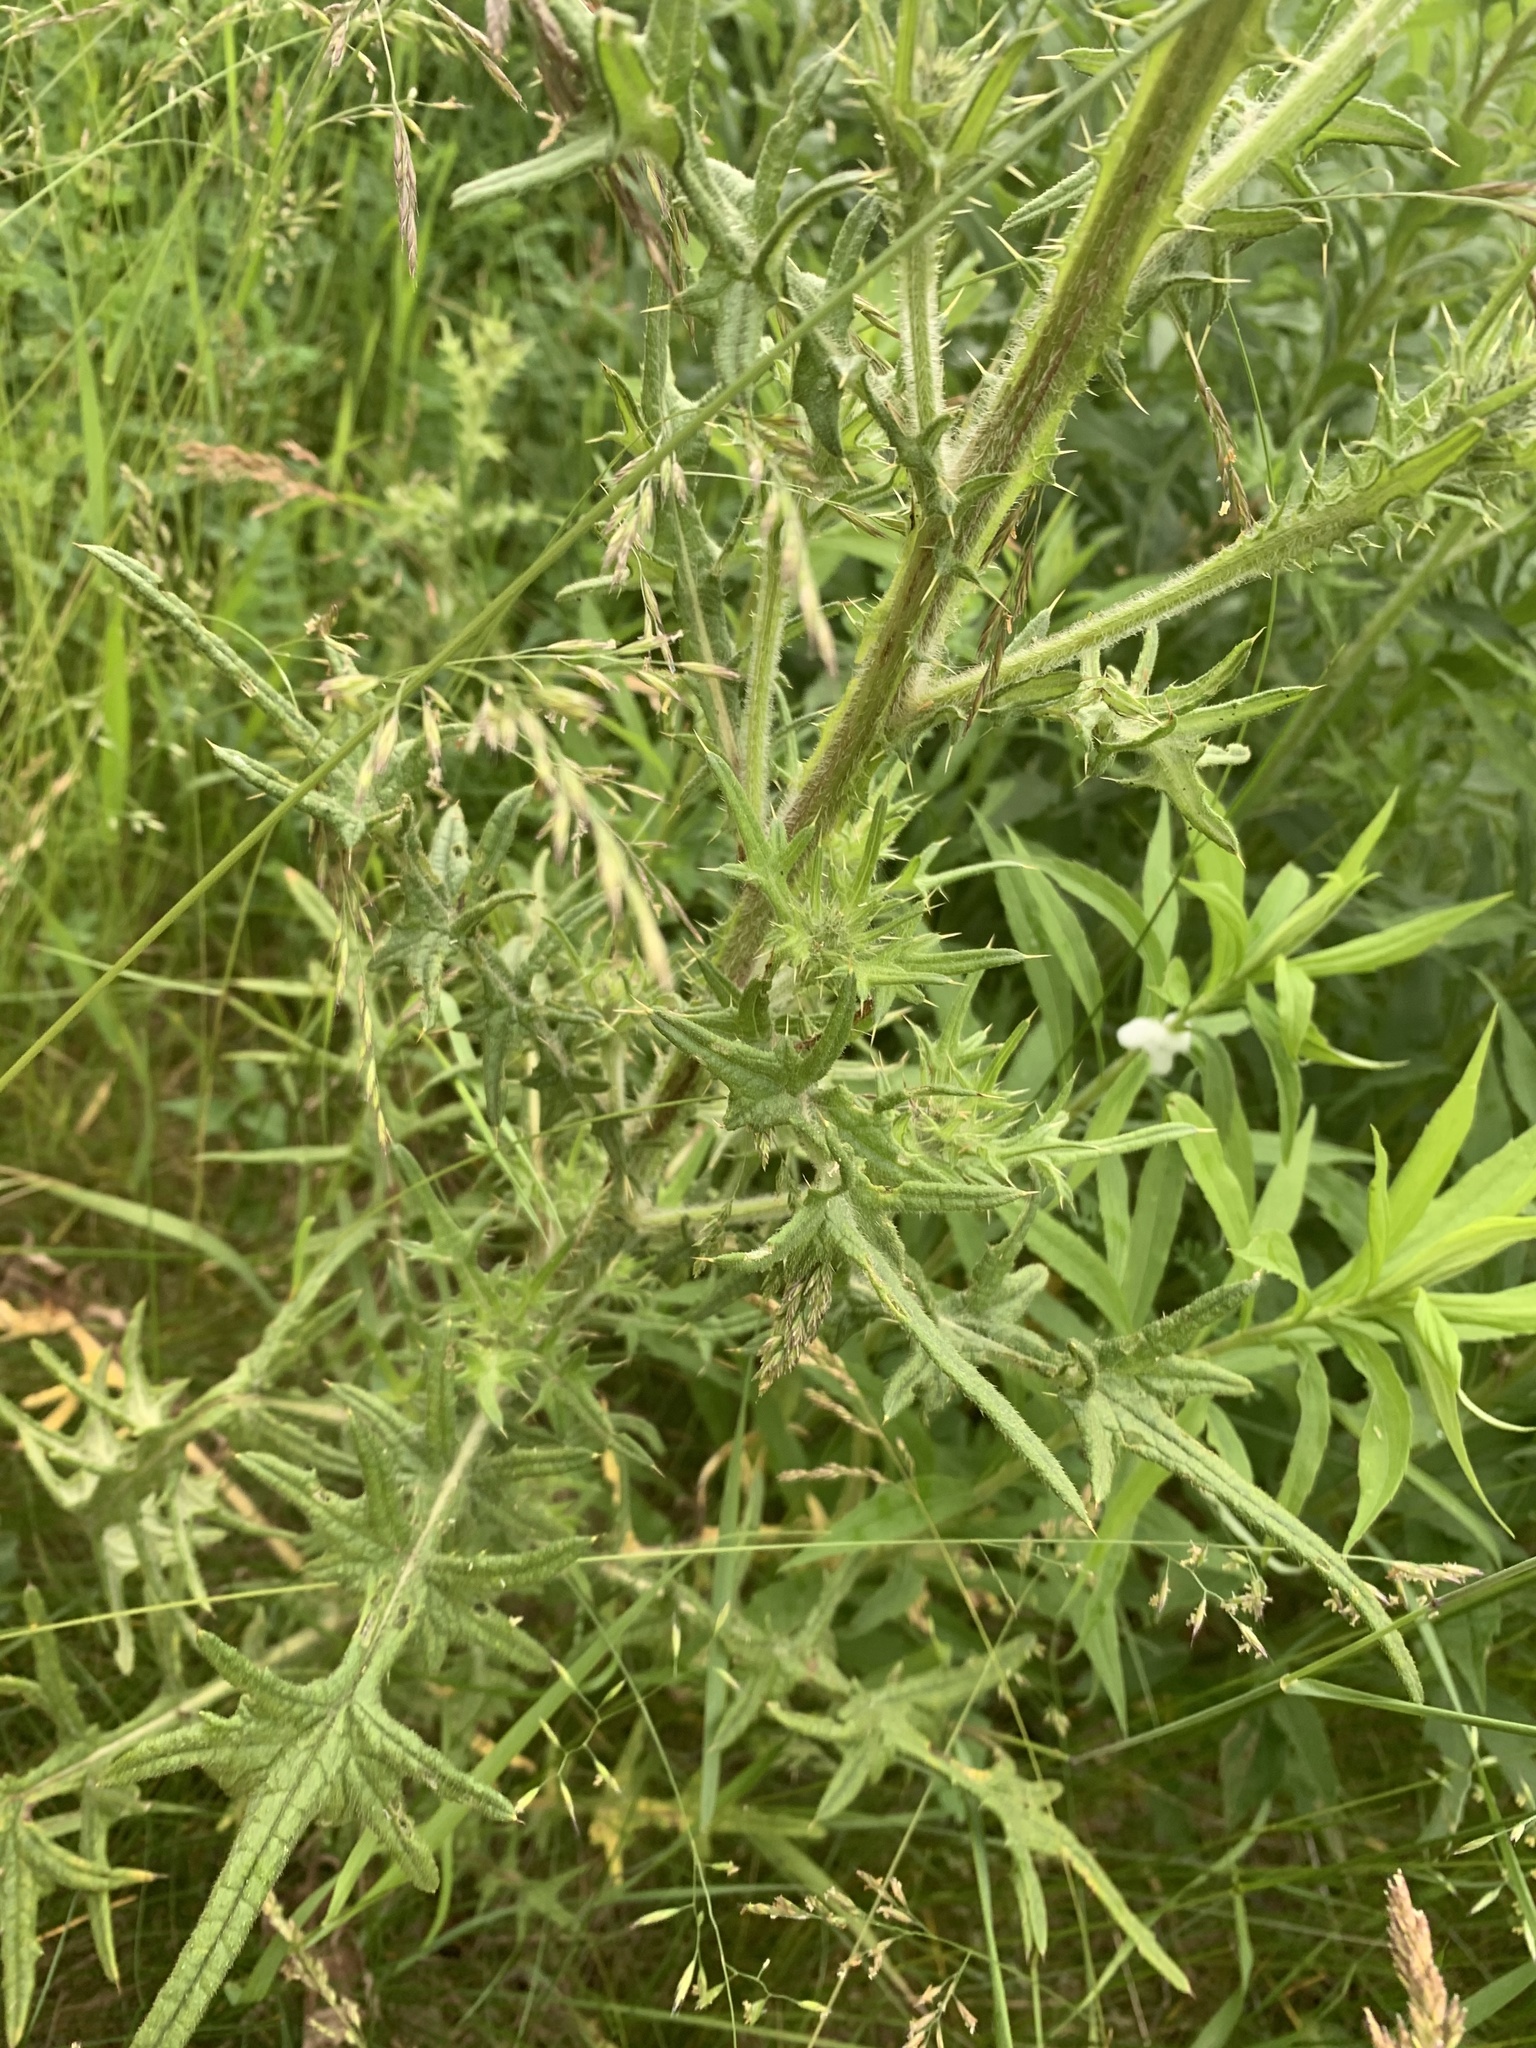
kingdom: Plantae
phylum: Tracheophyta
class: Magnoliopsida
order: Asterales
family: Asteraceae
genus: Cirsium
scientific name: Cirsium vulgare
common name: Bull thistle
